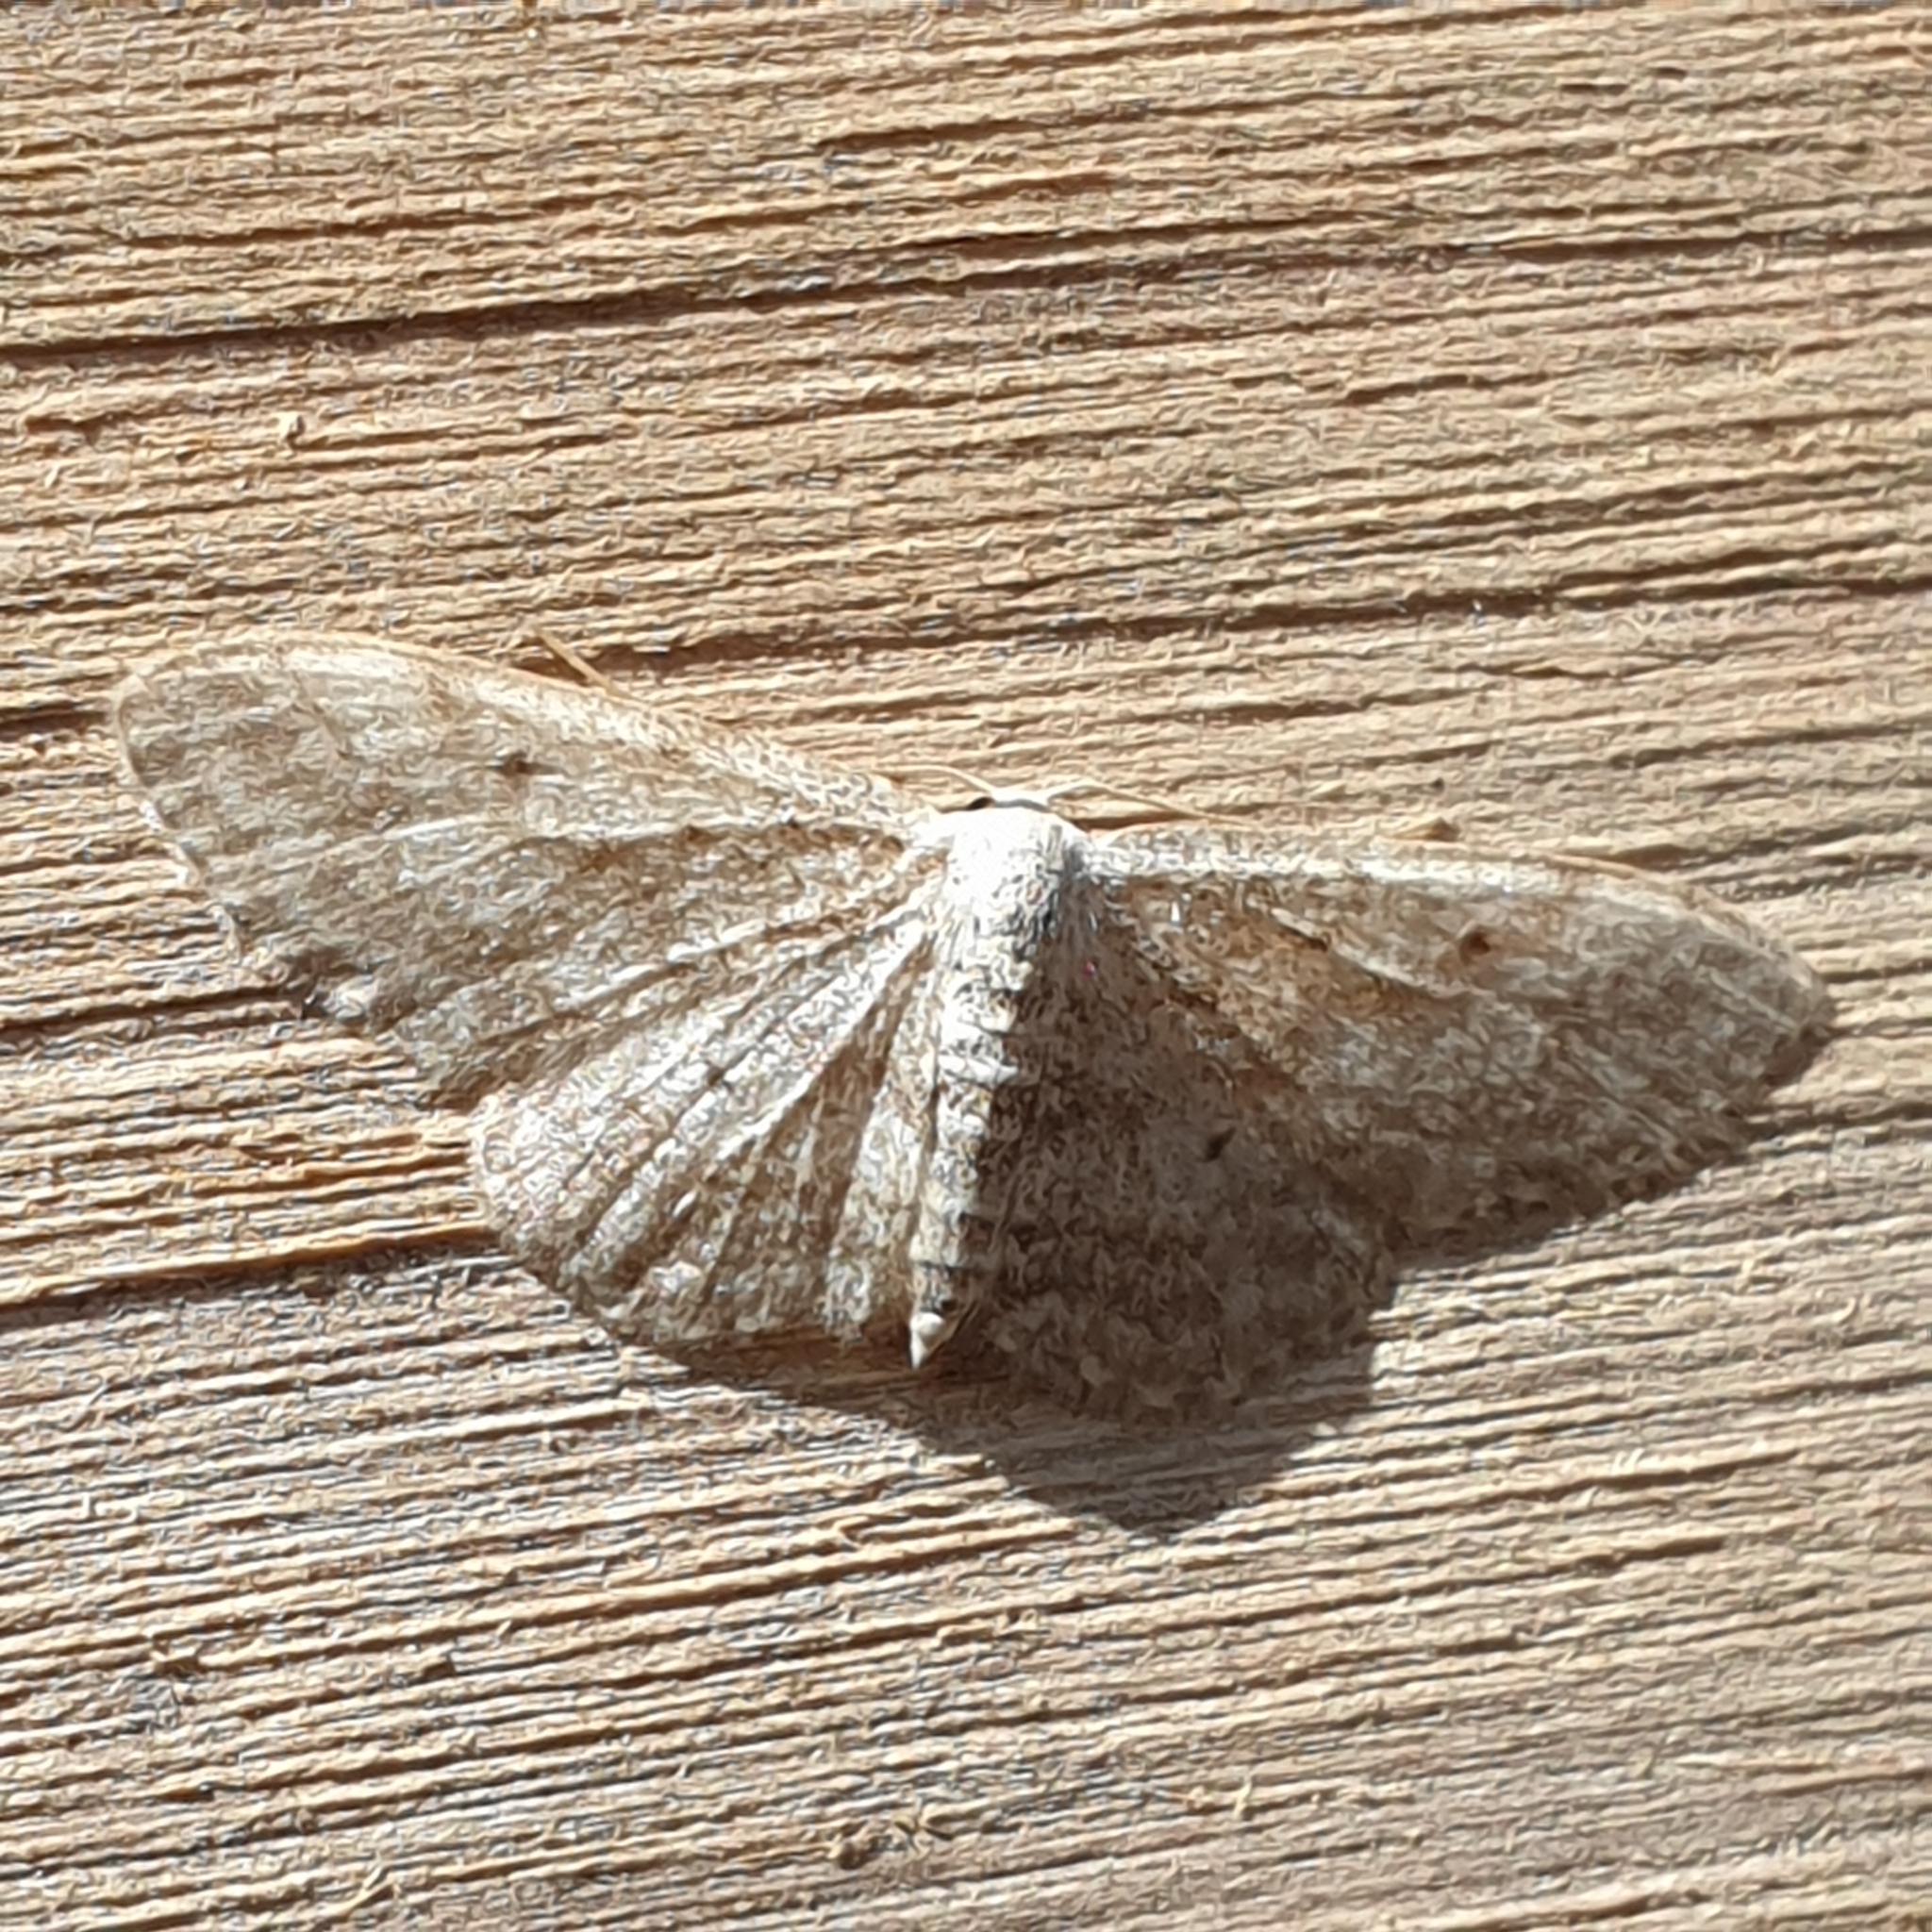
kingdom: Animalia
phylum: Arthropoda
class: Insecta
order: Lepidoptera
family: Geometridae
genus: Idaea
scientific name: Idaea maritimaria
